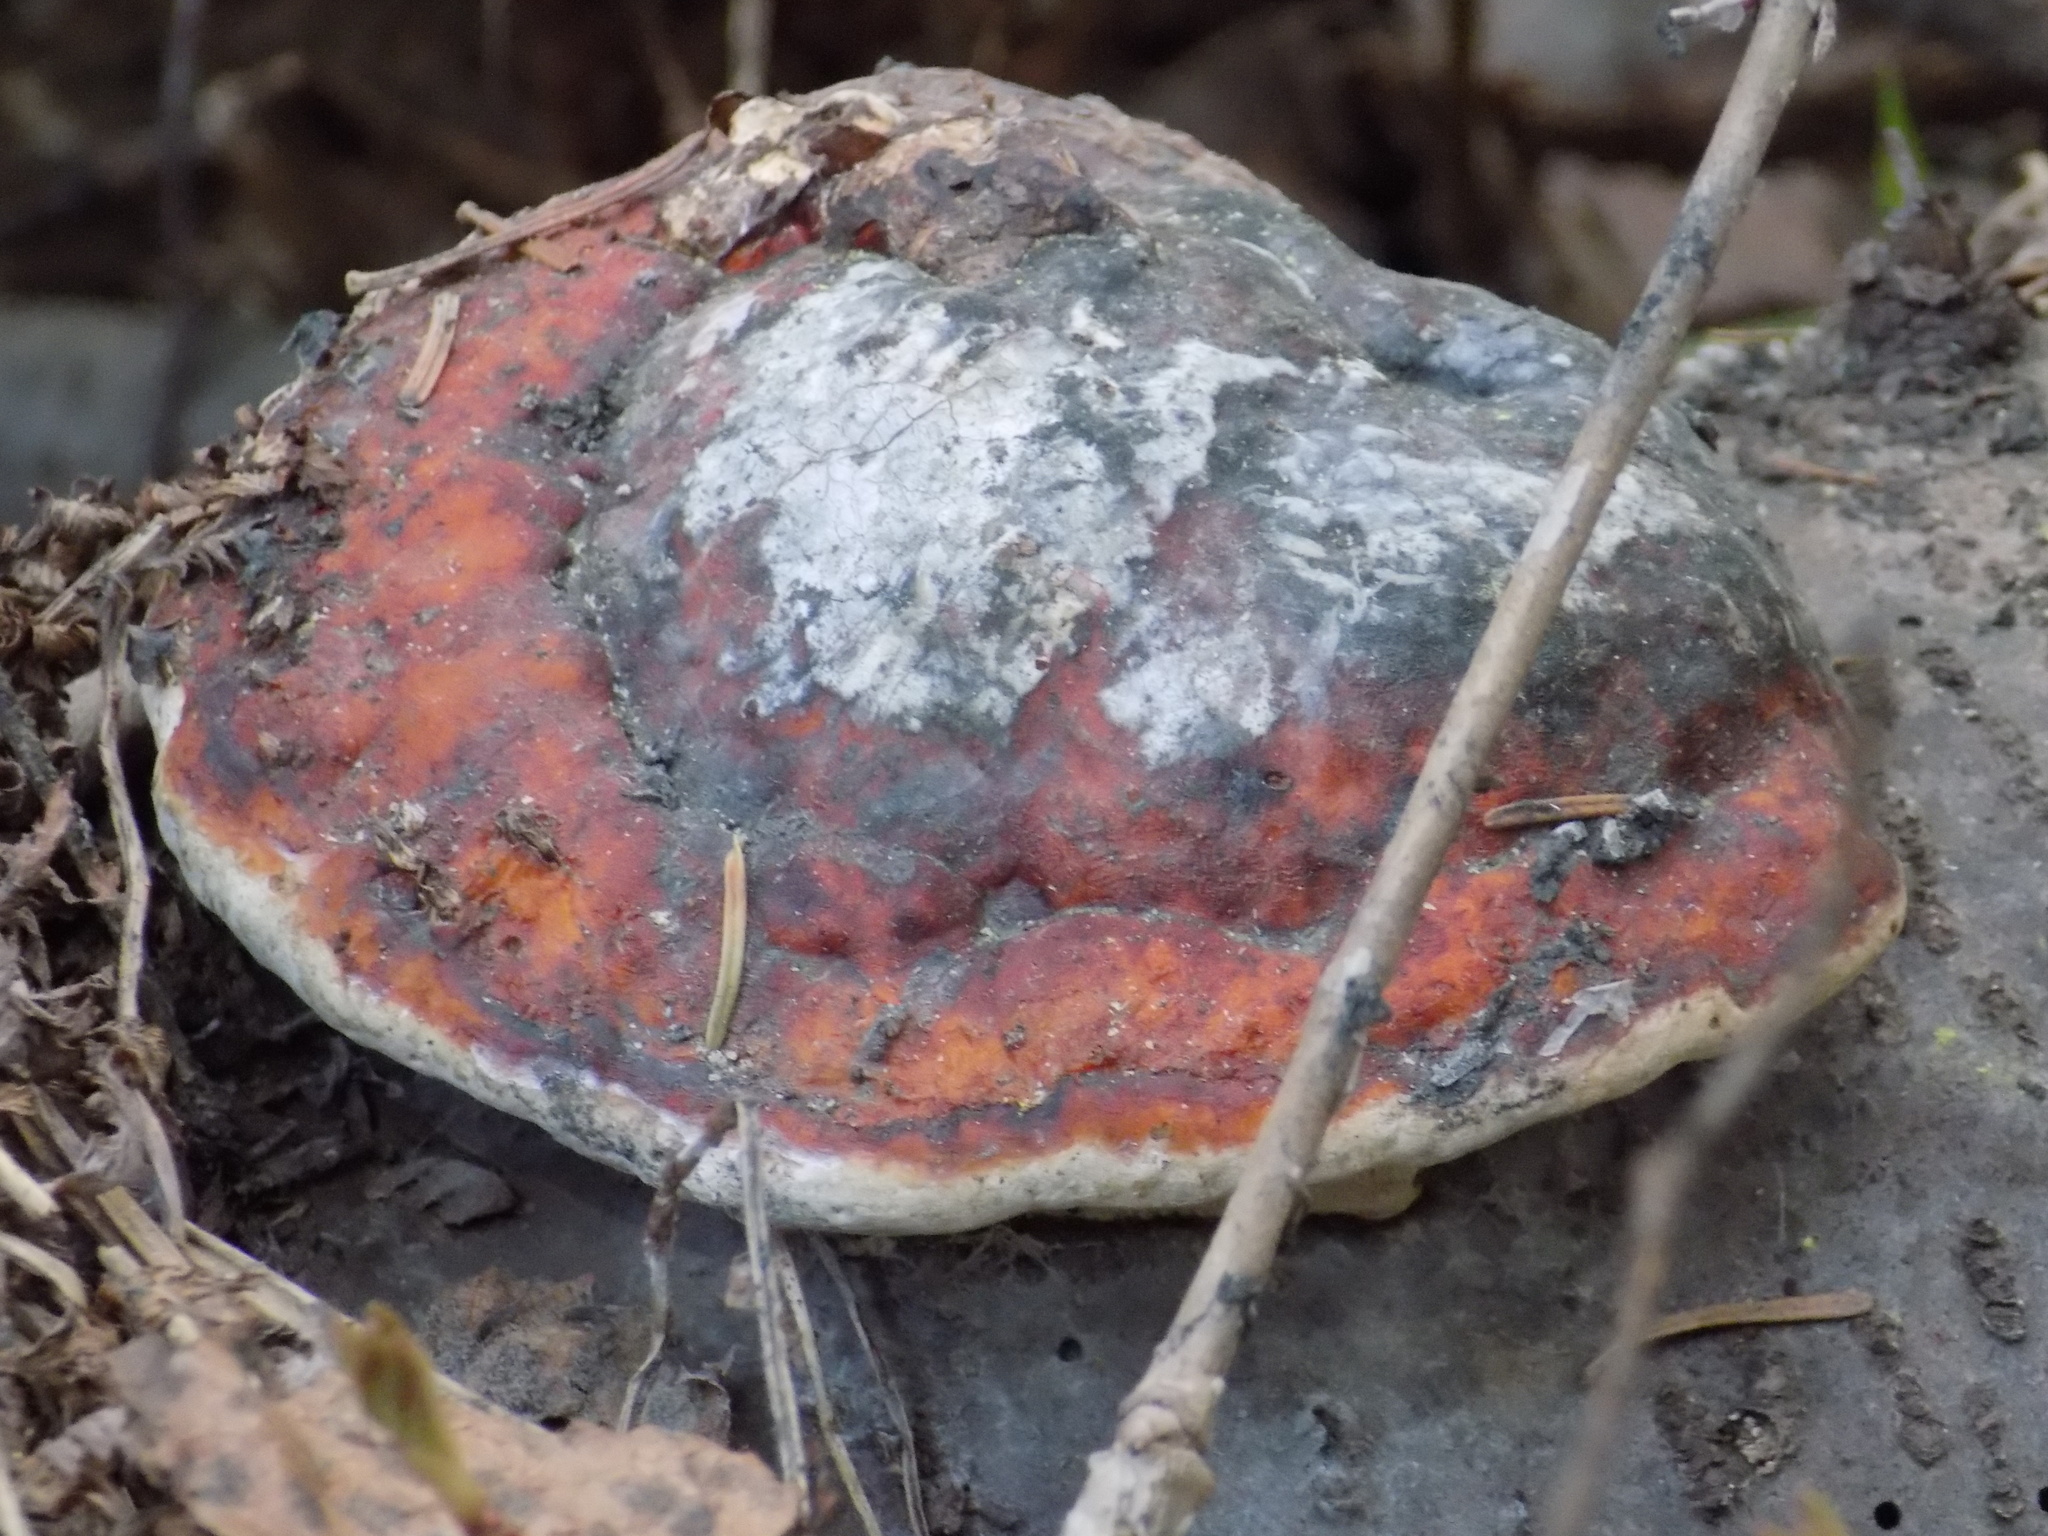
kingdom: Fungi
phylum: Basidiomycota
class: Agaricomycetes
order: Polyporales
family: Fomitopsidaceae
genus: Fomitopsis
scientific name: Fomitopsis pinicola
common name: Red-belted bracket
